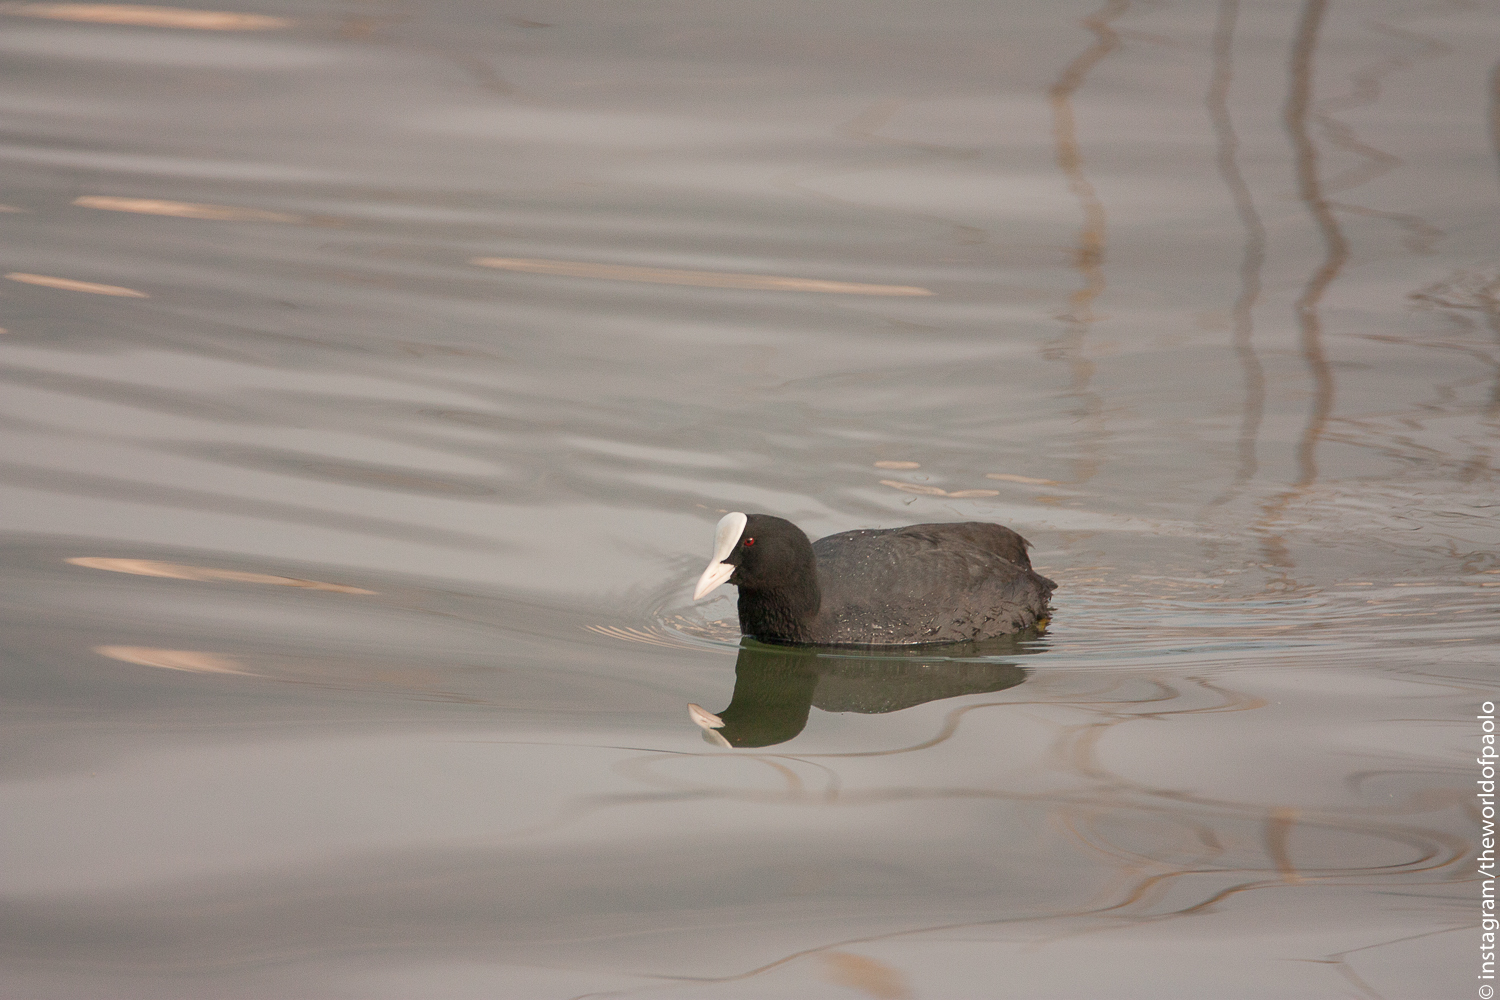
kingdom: Animalia
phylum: Chordata
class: Aves
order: Gruiformes
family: Rallidae
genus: Fulica
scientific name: Fulica atra
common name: Eurasian coot
